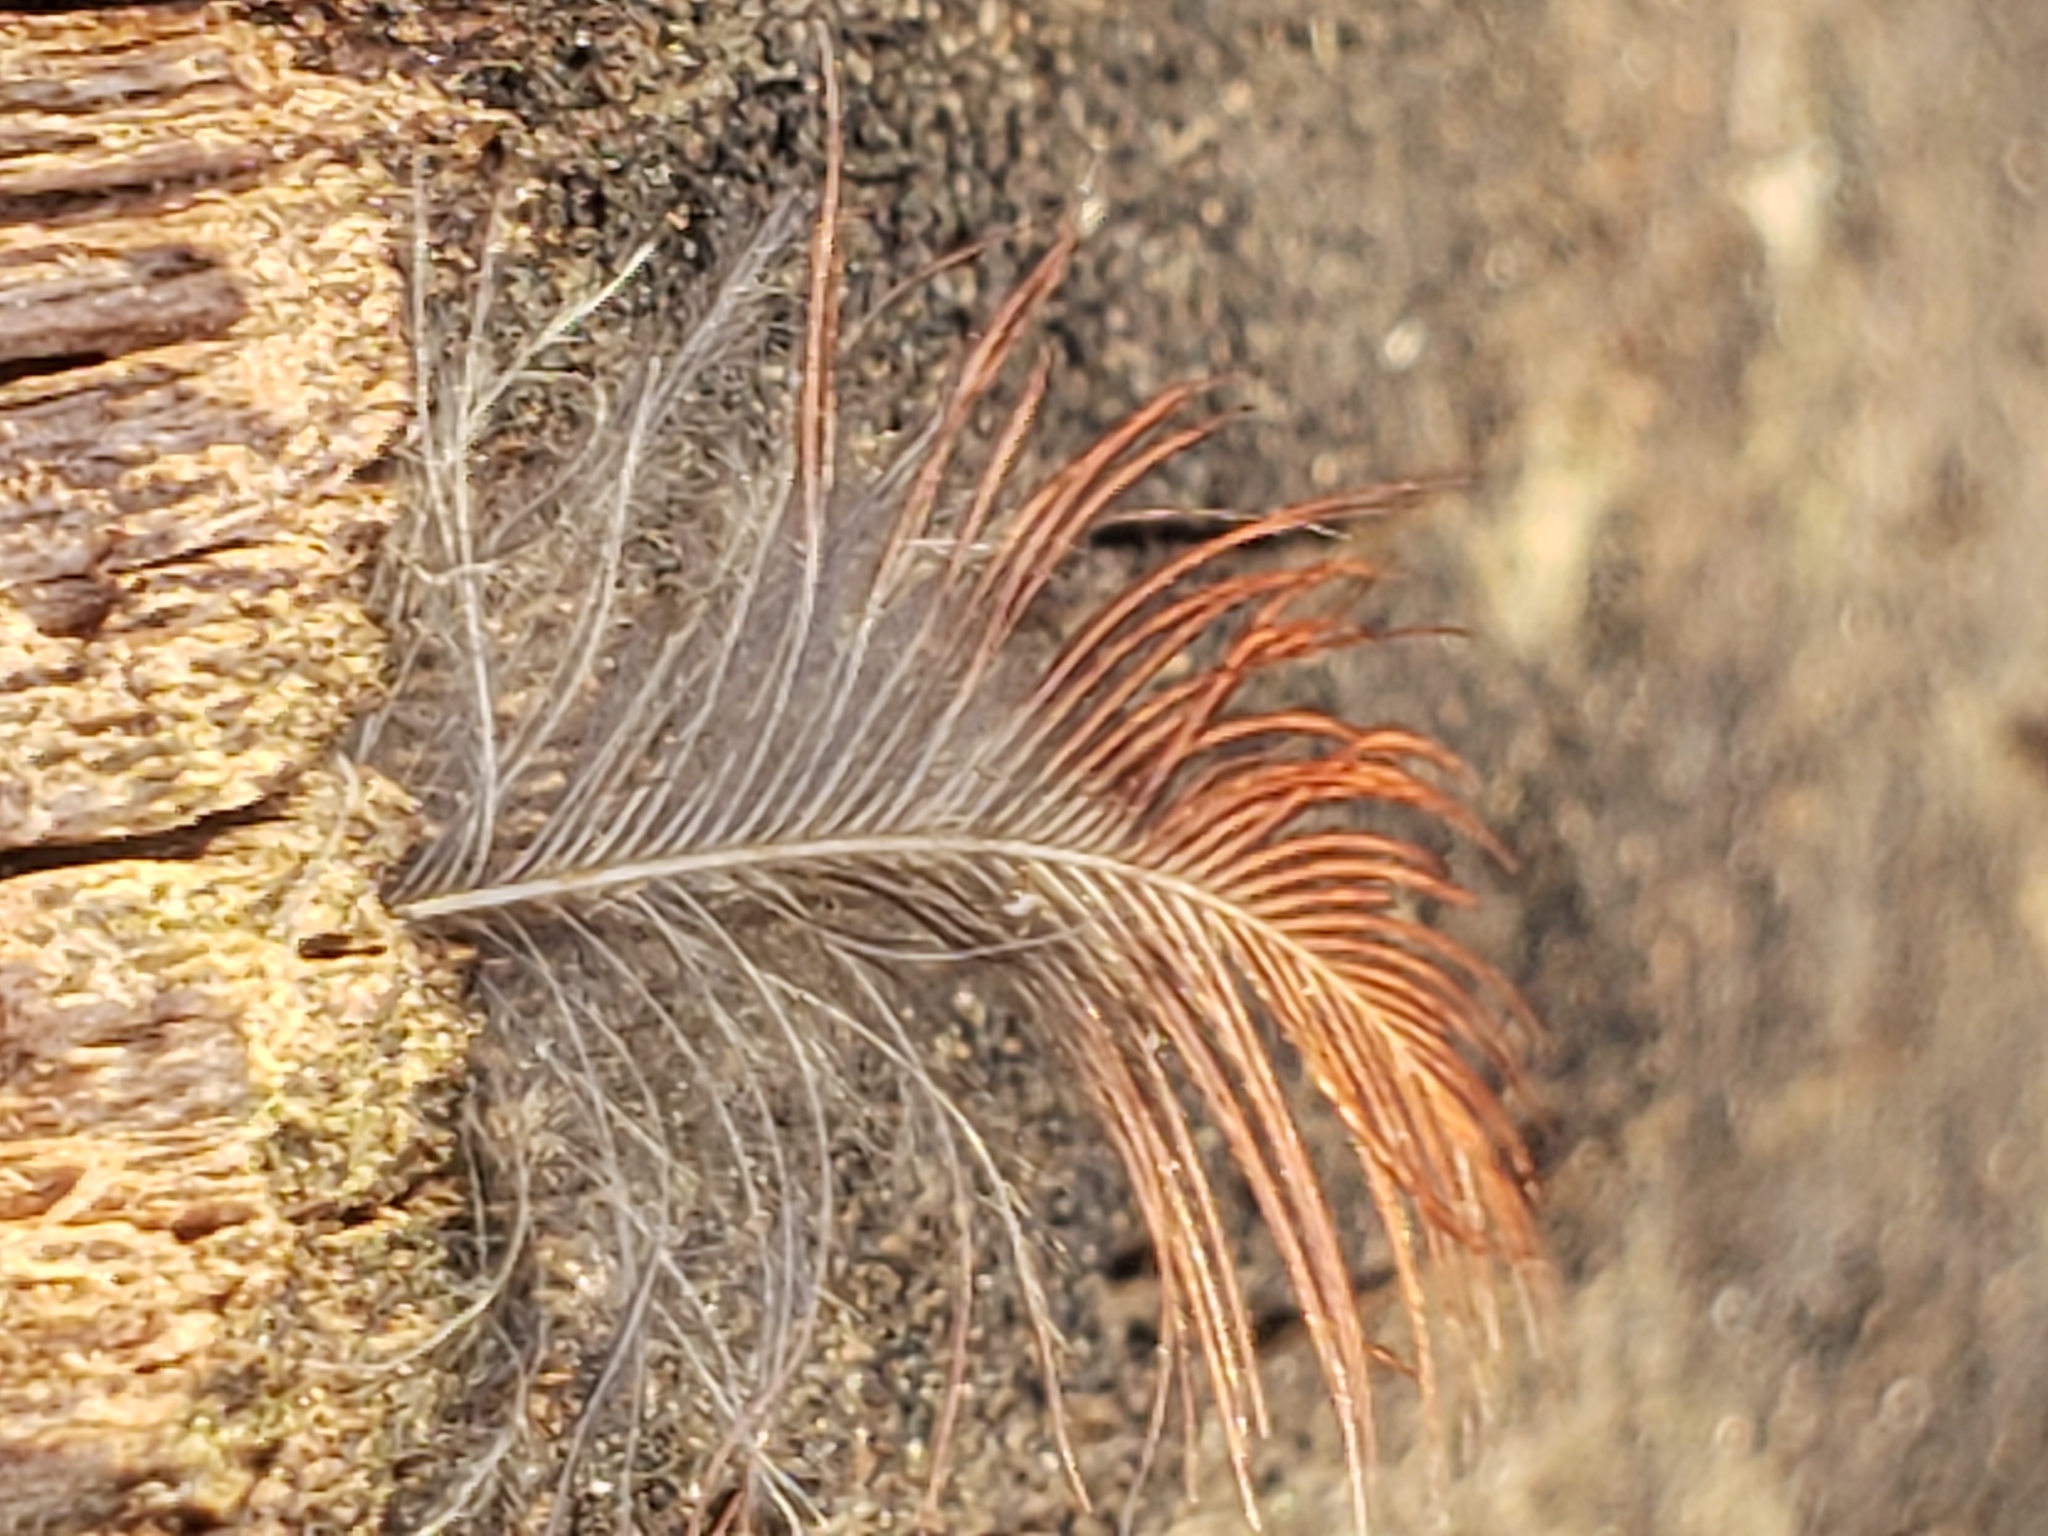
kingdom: Animalia
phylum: Chordata
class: Aves
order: Passeriformes
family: Cardinalidae
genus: Cardinalis
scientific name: Cardinalis cardinalis
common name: Northern cardinal
